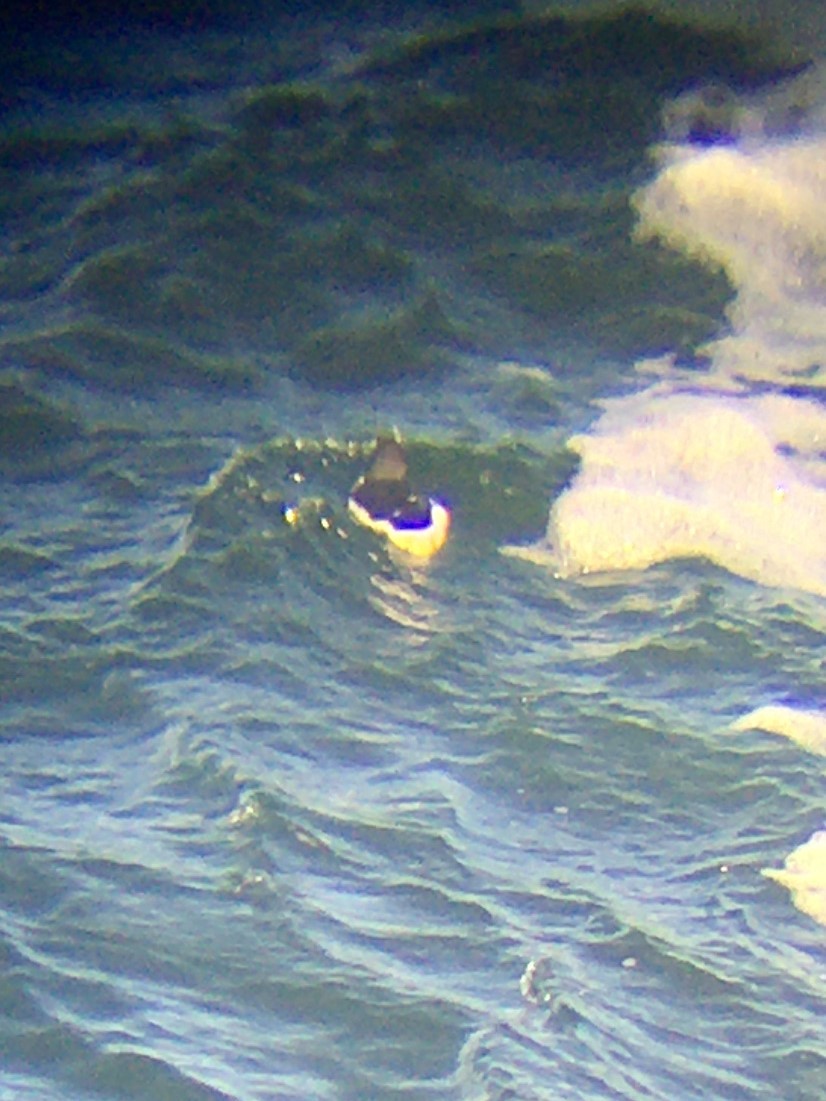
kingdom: Animalia
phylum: Chordata
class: Aves
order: Charadriiformes
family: Alcidae
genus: Uria
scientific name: Uria lomvia
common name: Thick-billed murre
